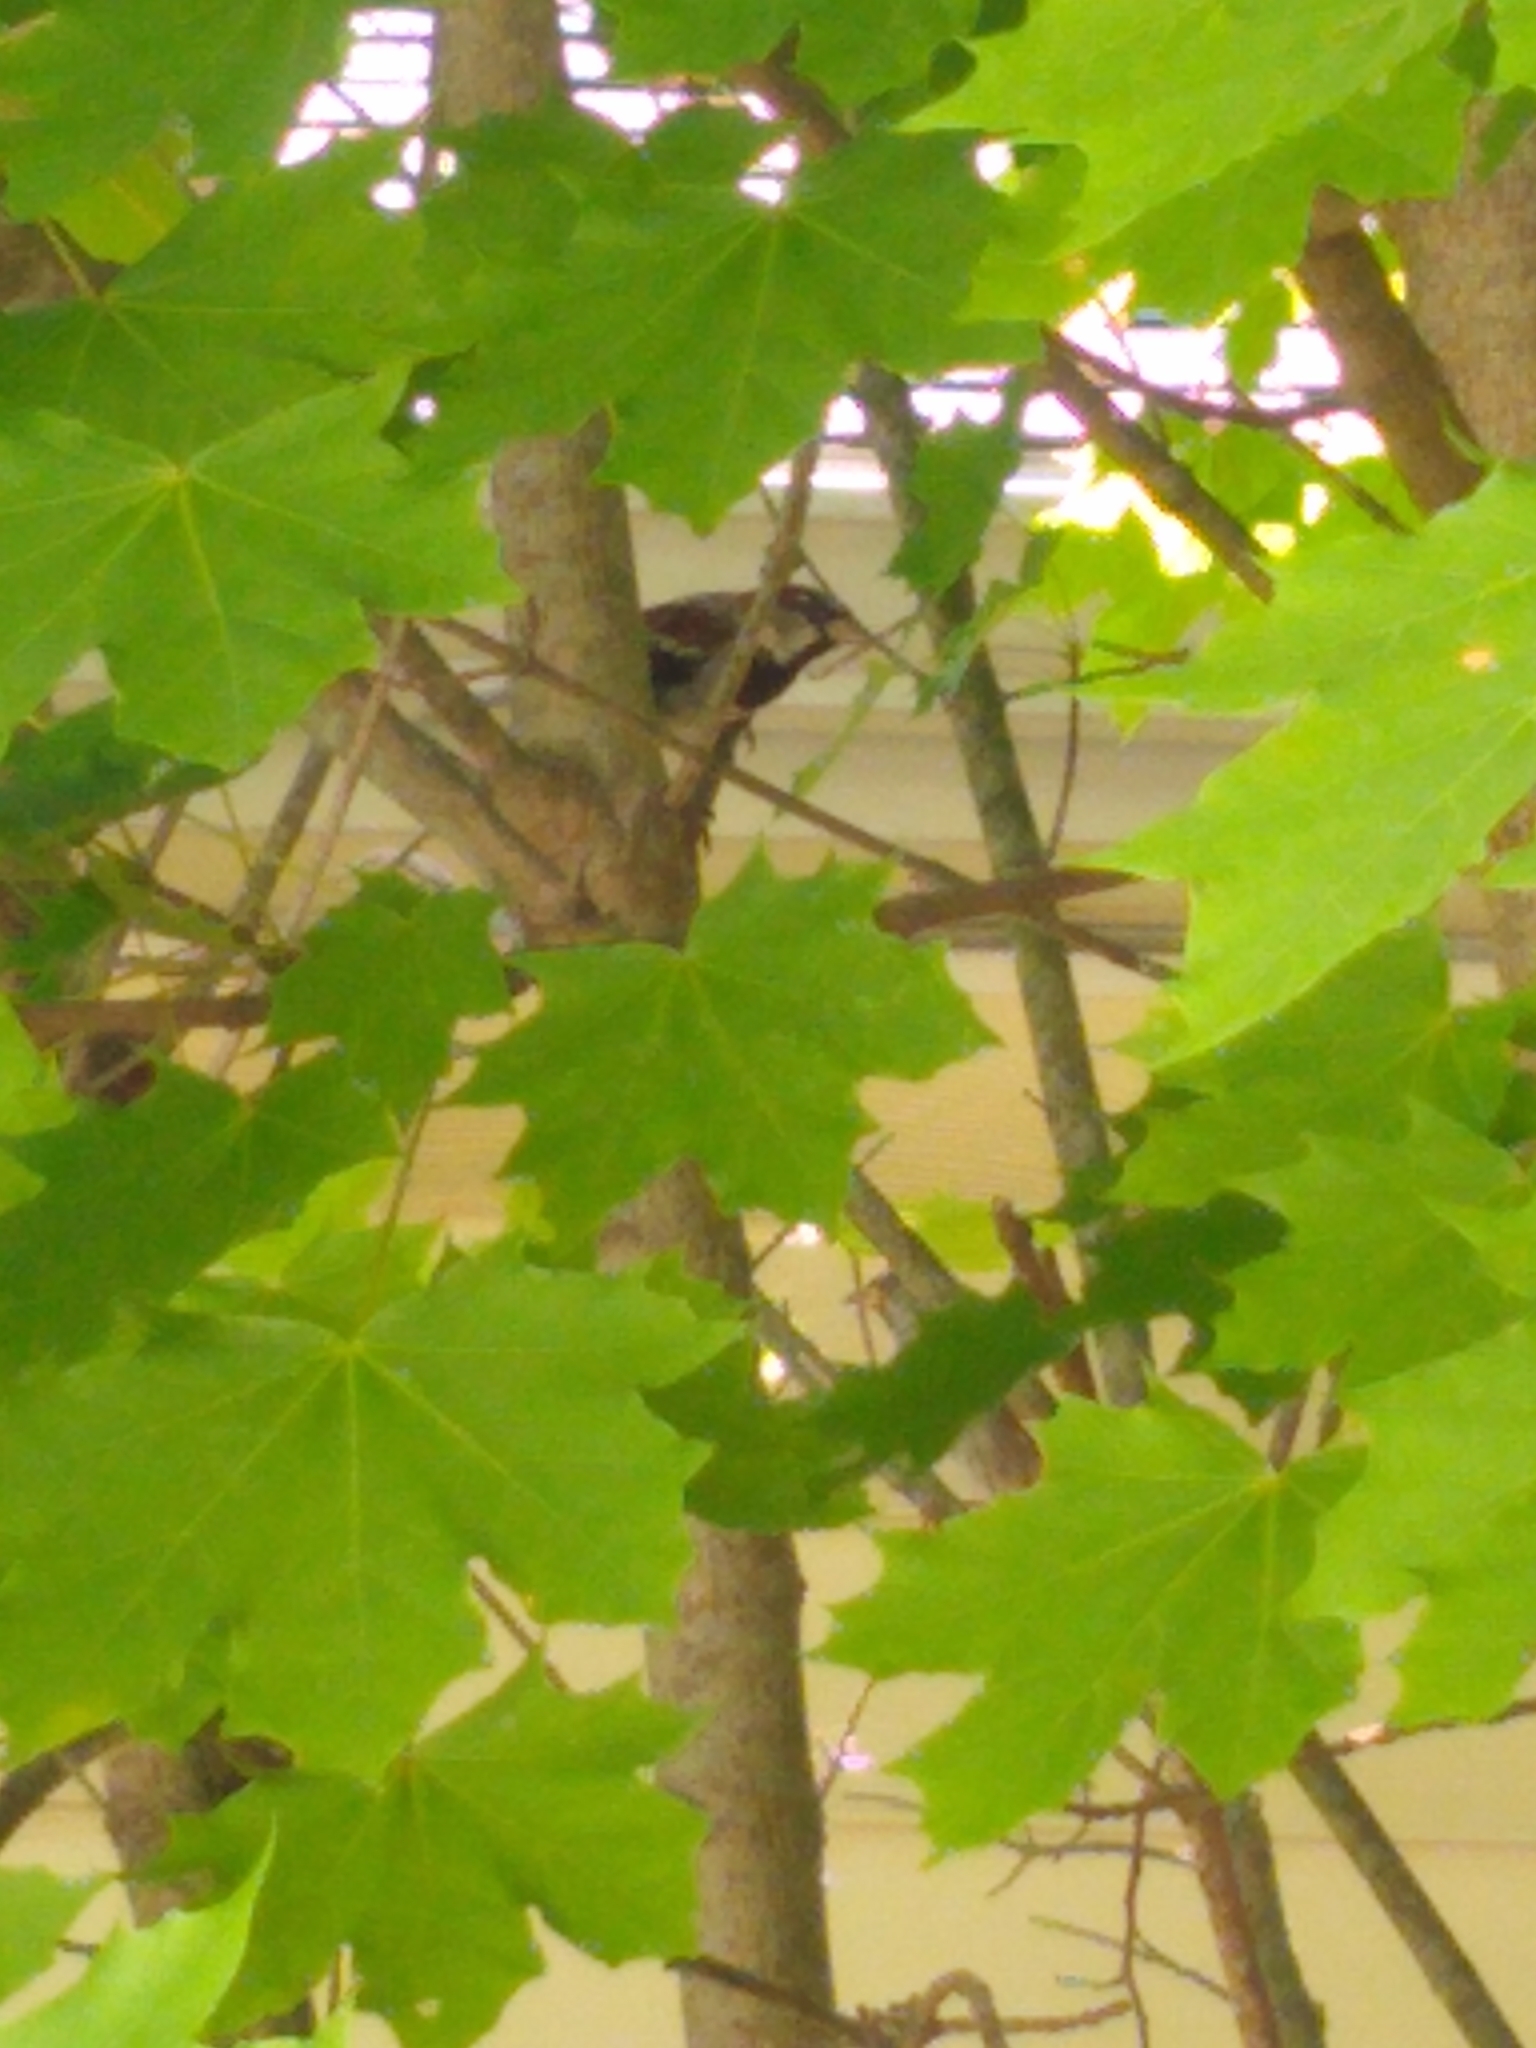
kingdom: Animalia
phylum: Chordata
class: Aves
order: Passeriformes
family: Passeridae
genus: Passer
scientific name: Passer domesticus
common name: House sparrow
